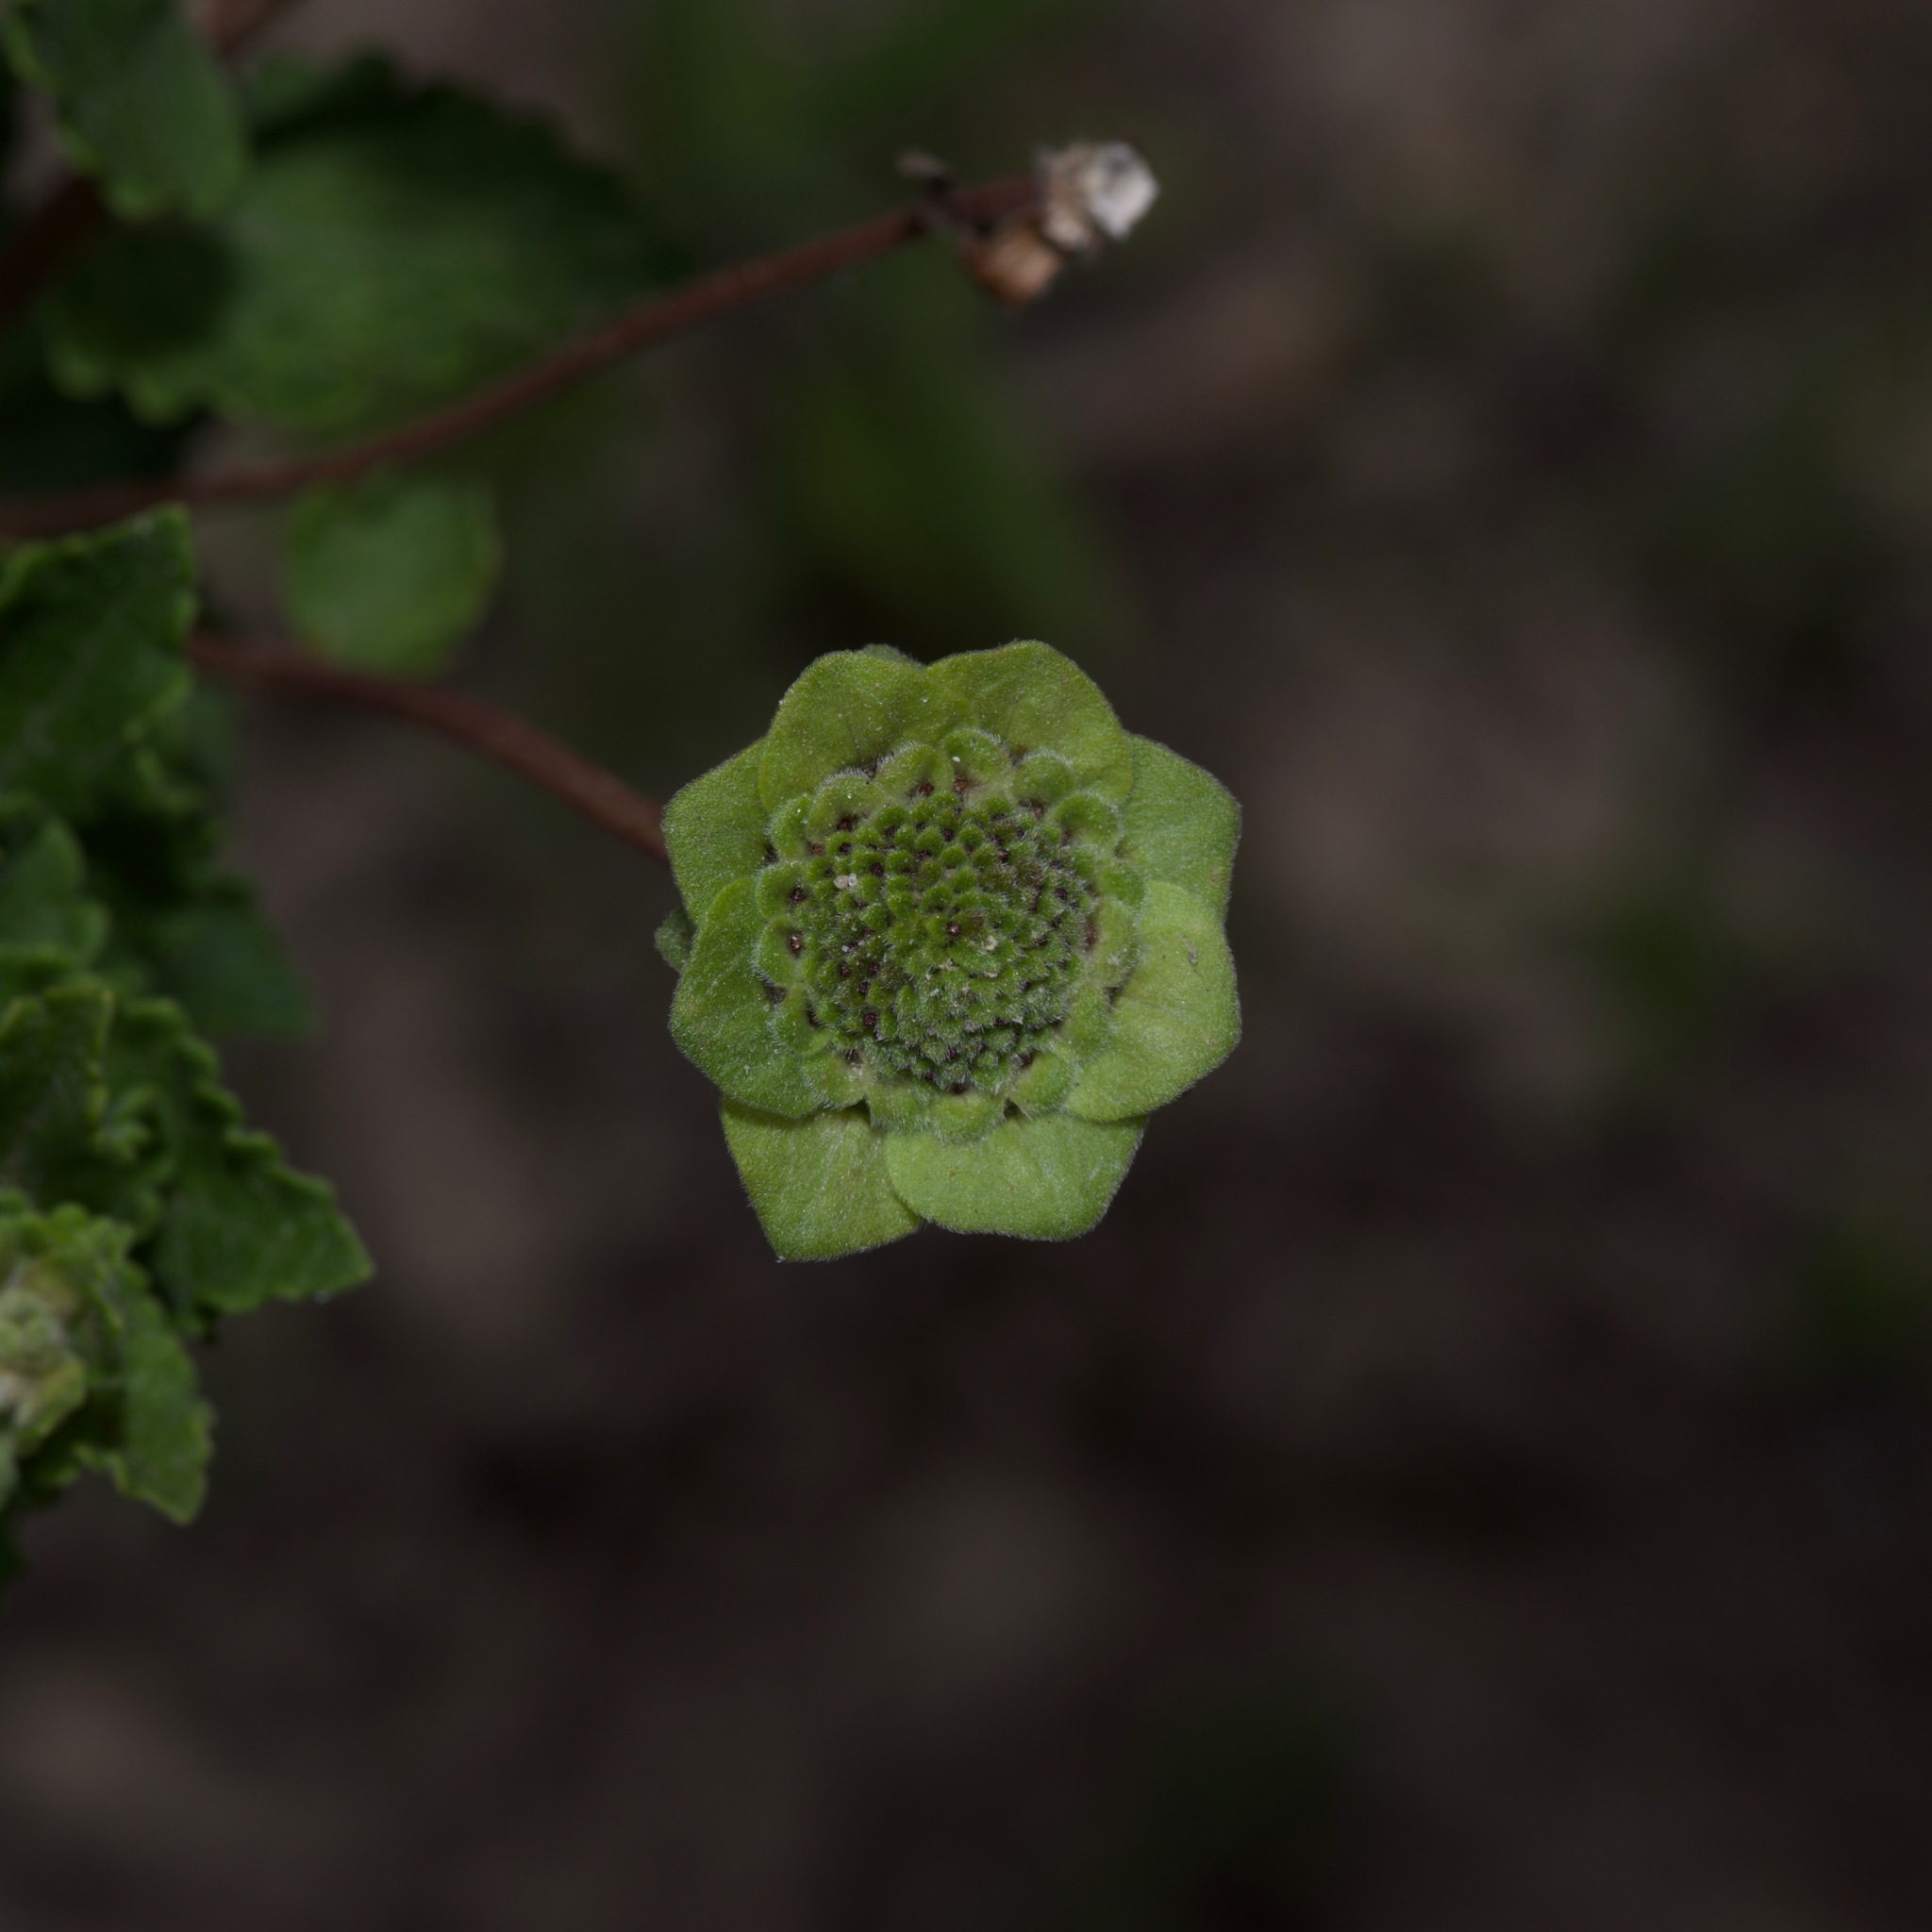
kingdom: Plantae
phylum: Tracheophyta
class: Magnoliopsida
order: Asterales
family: Asteraceae
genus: Berlandiera
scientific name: Berlandiera pumila
